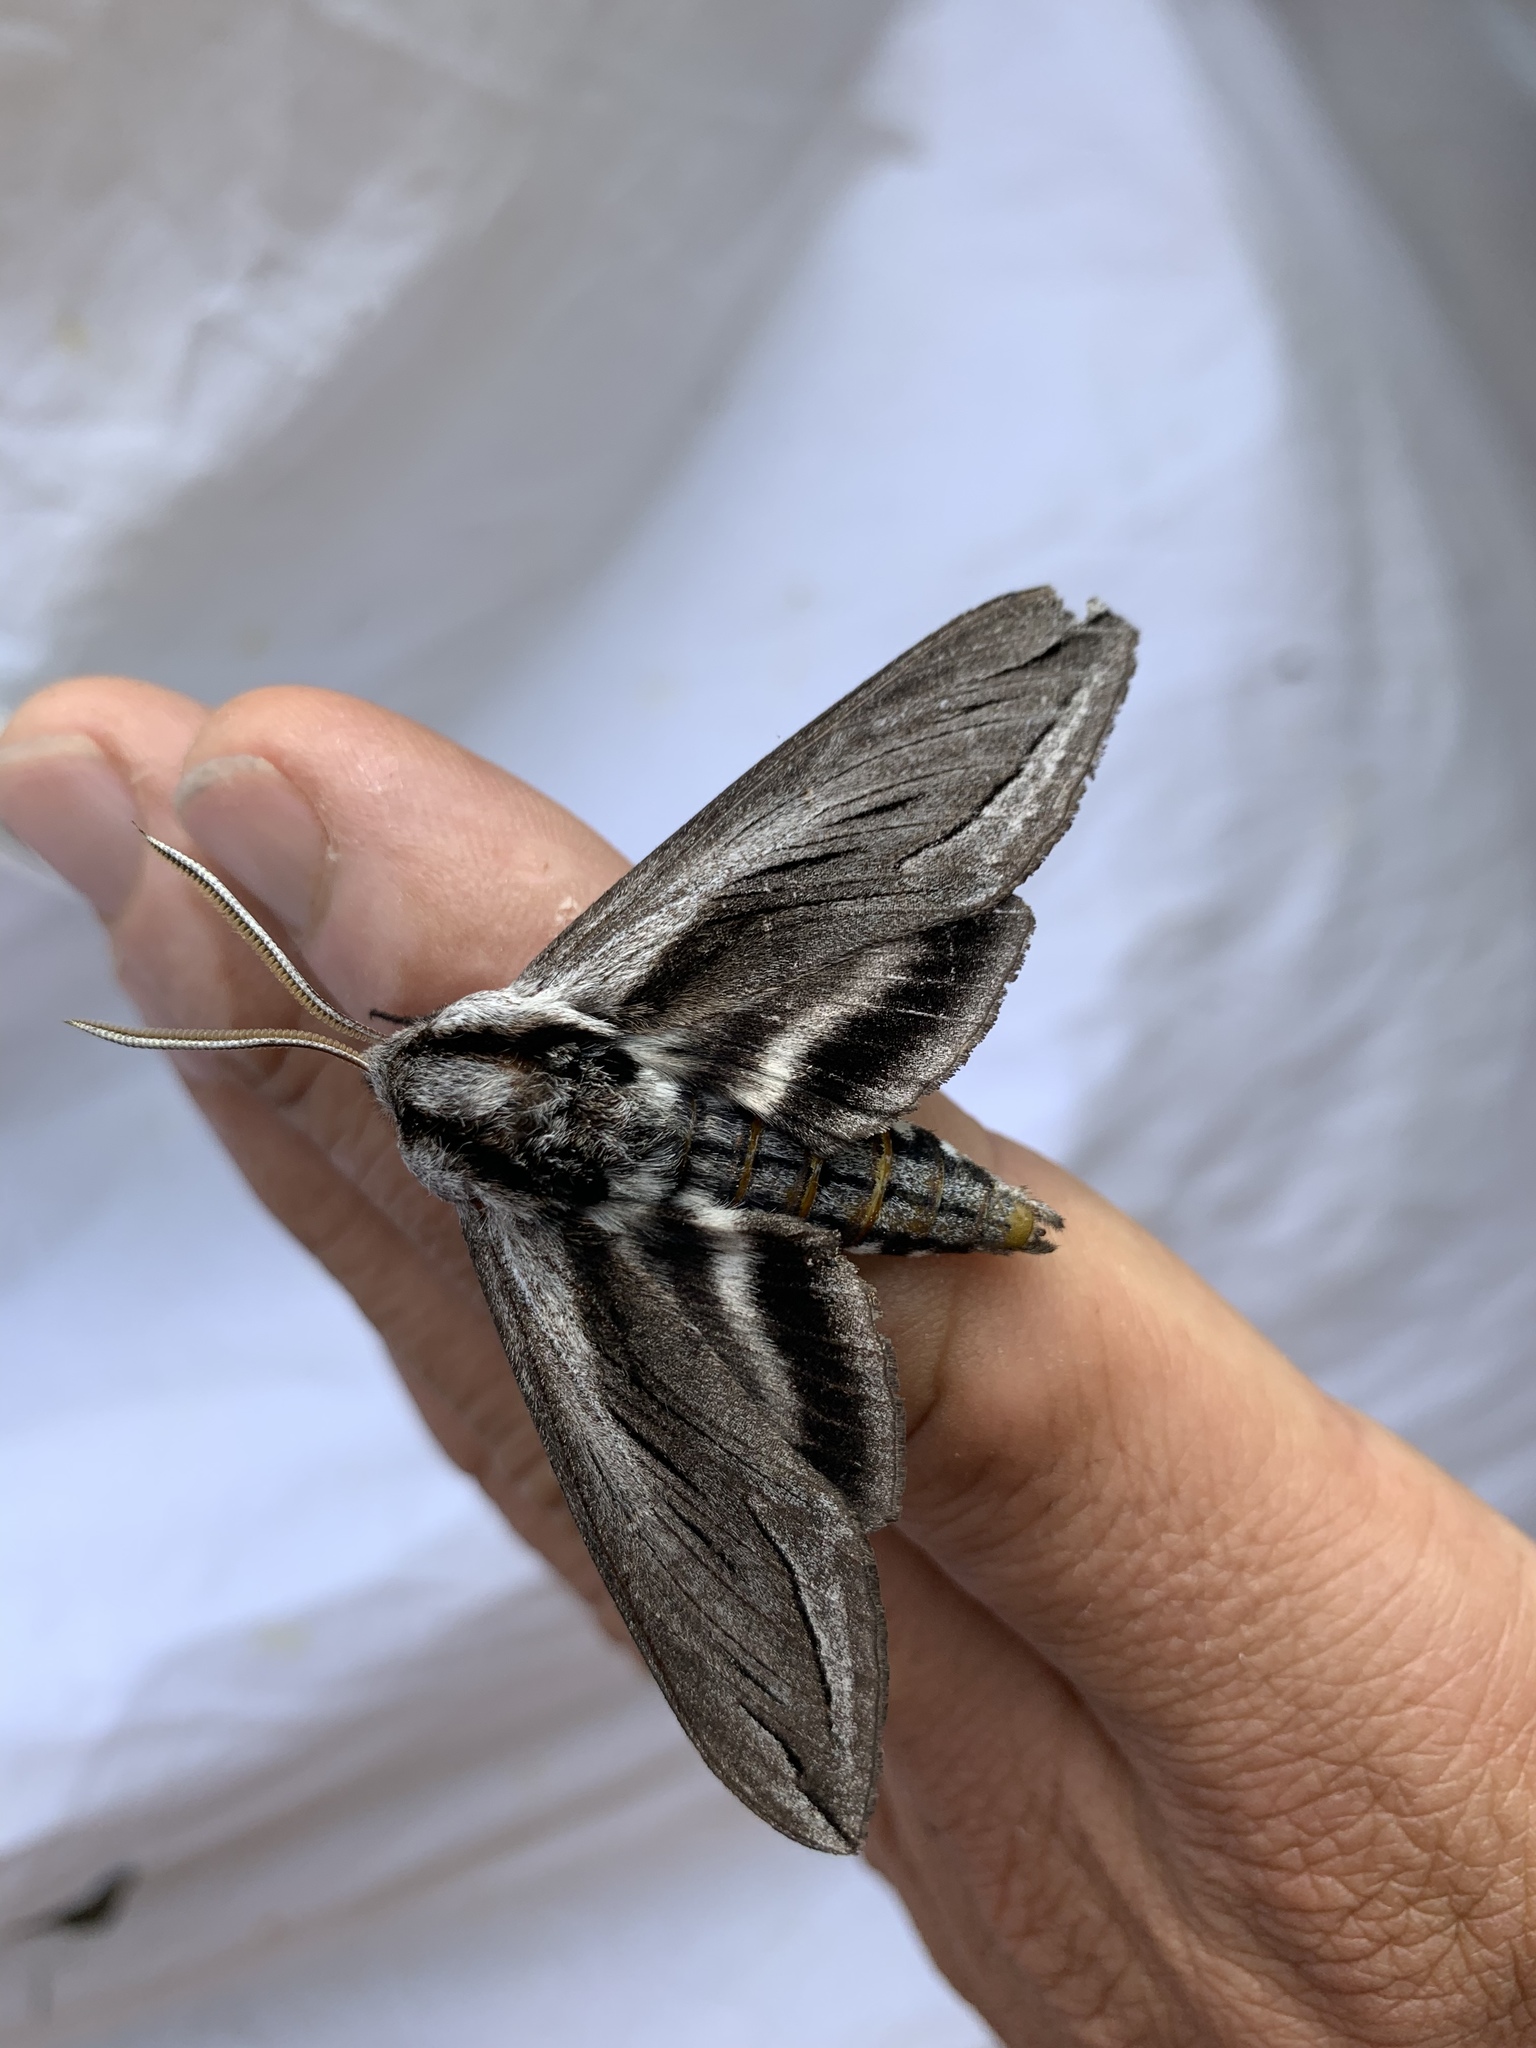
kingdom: Animalia
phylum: Arthropoda
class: Insecta
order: Lepidoptera
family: Sphingidae
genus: Sphinx
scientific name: Sphinx vashti
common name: Snowberry sphinx
